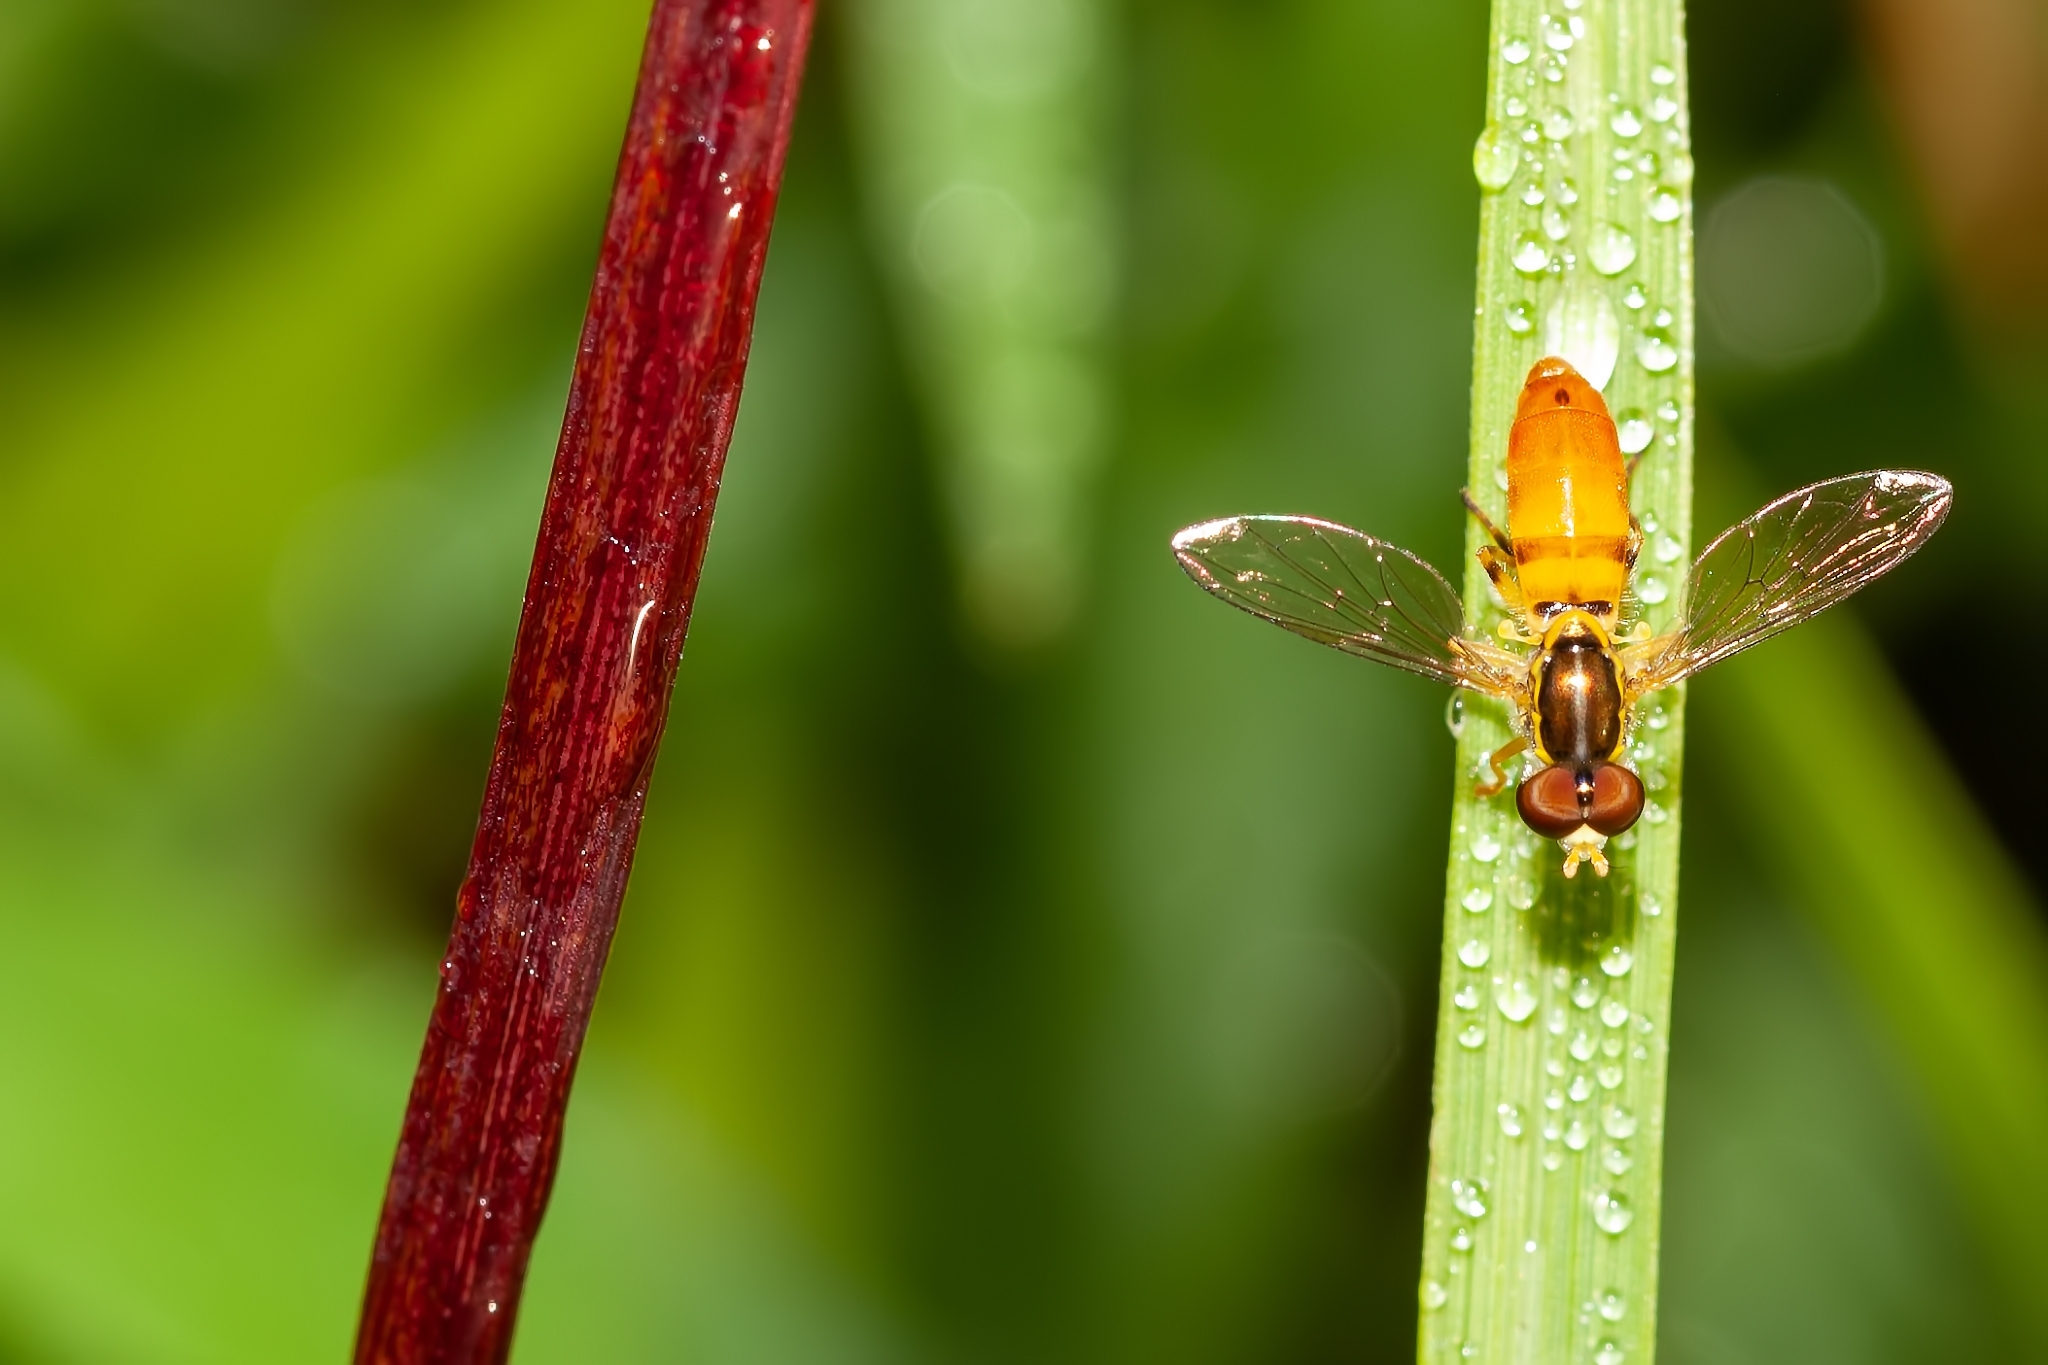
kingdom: Animalia
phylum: Arthropoda
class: Insecta
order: Diptera
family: Syrphidae
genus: Toxomerus
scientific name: Toxomerus floralis
